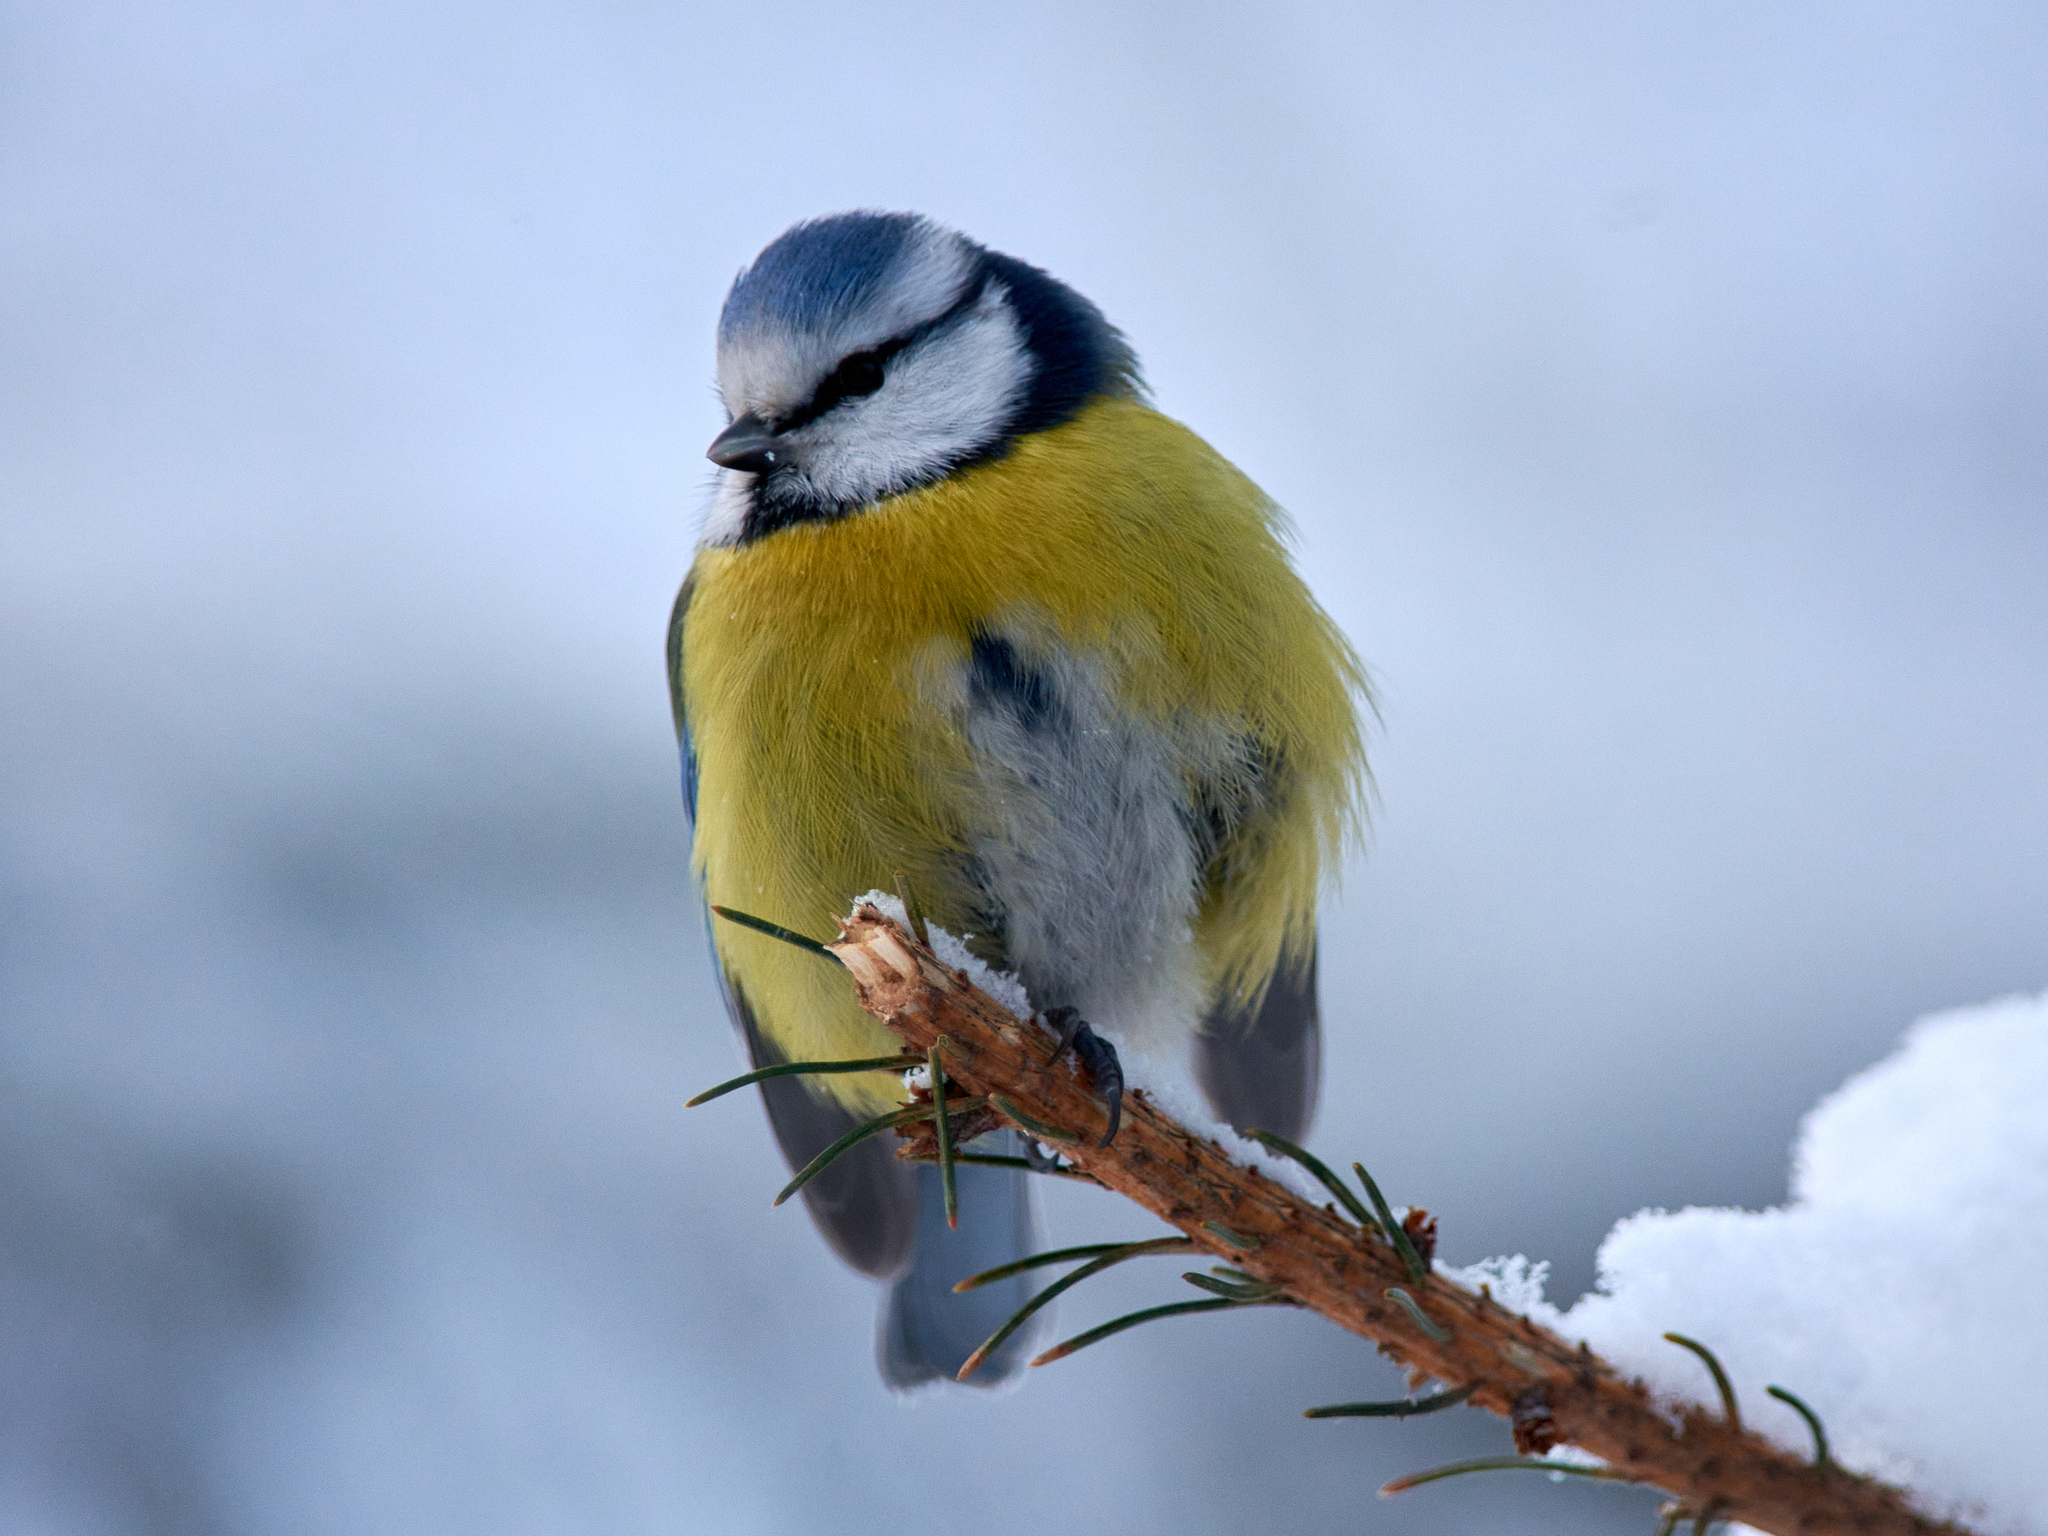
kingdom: Animalia
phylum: Chordata
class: Aves
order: Passeriformes
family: Paridae
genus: Cyanistes
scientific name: Cyanistes caeruleus
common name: Eurasian blue tit
